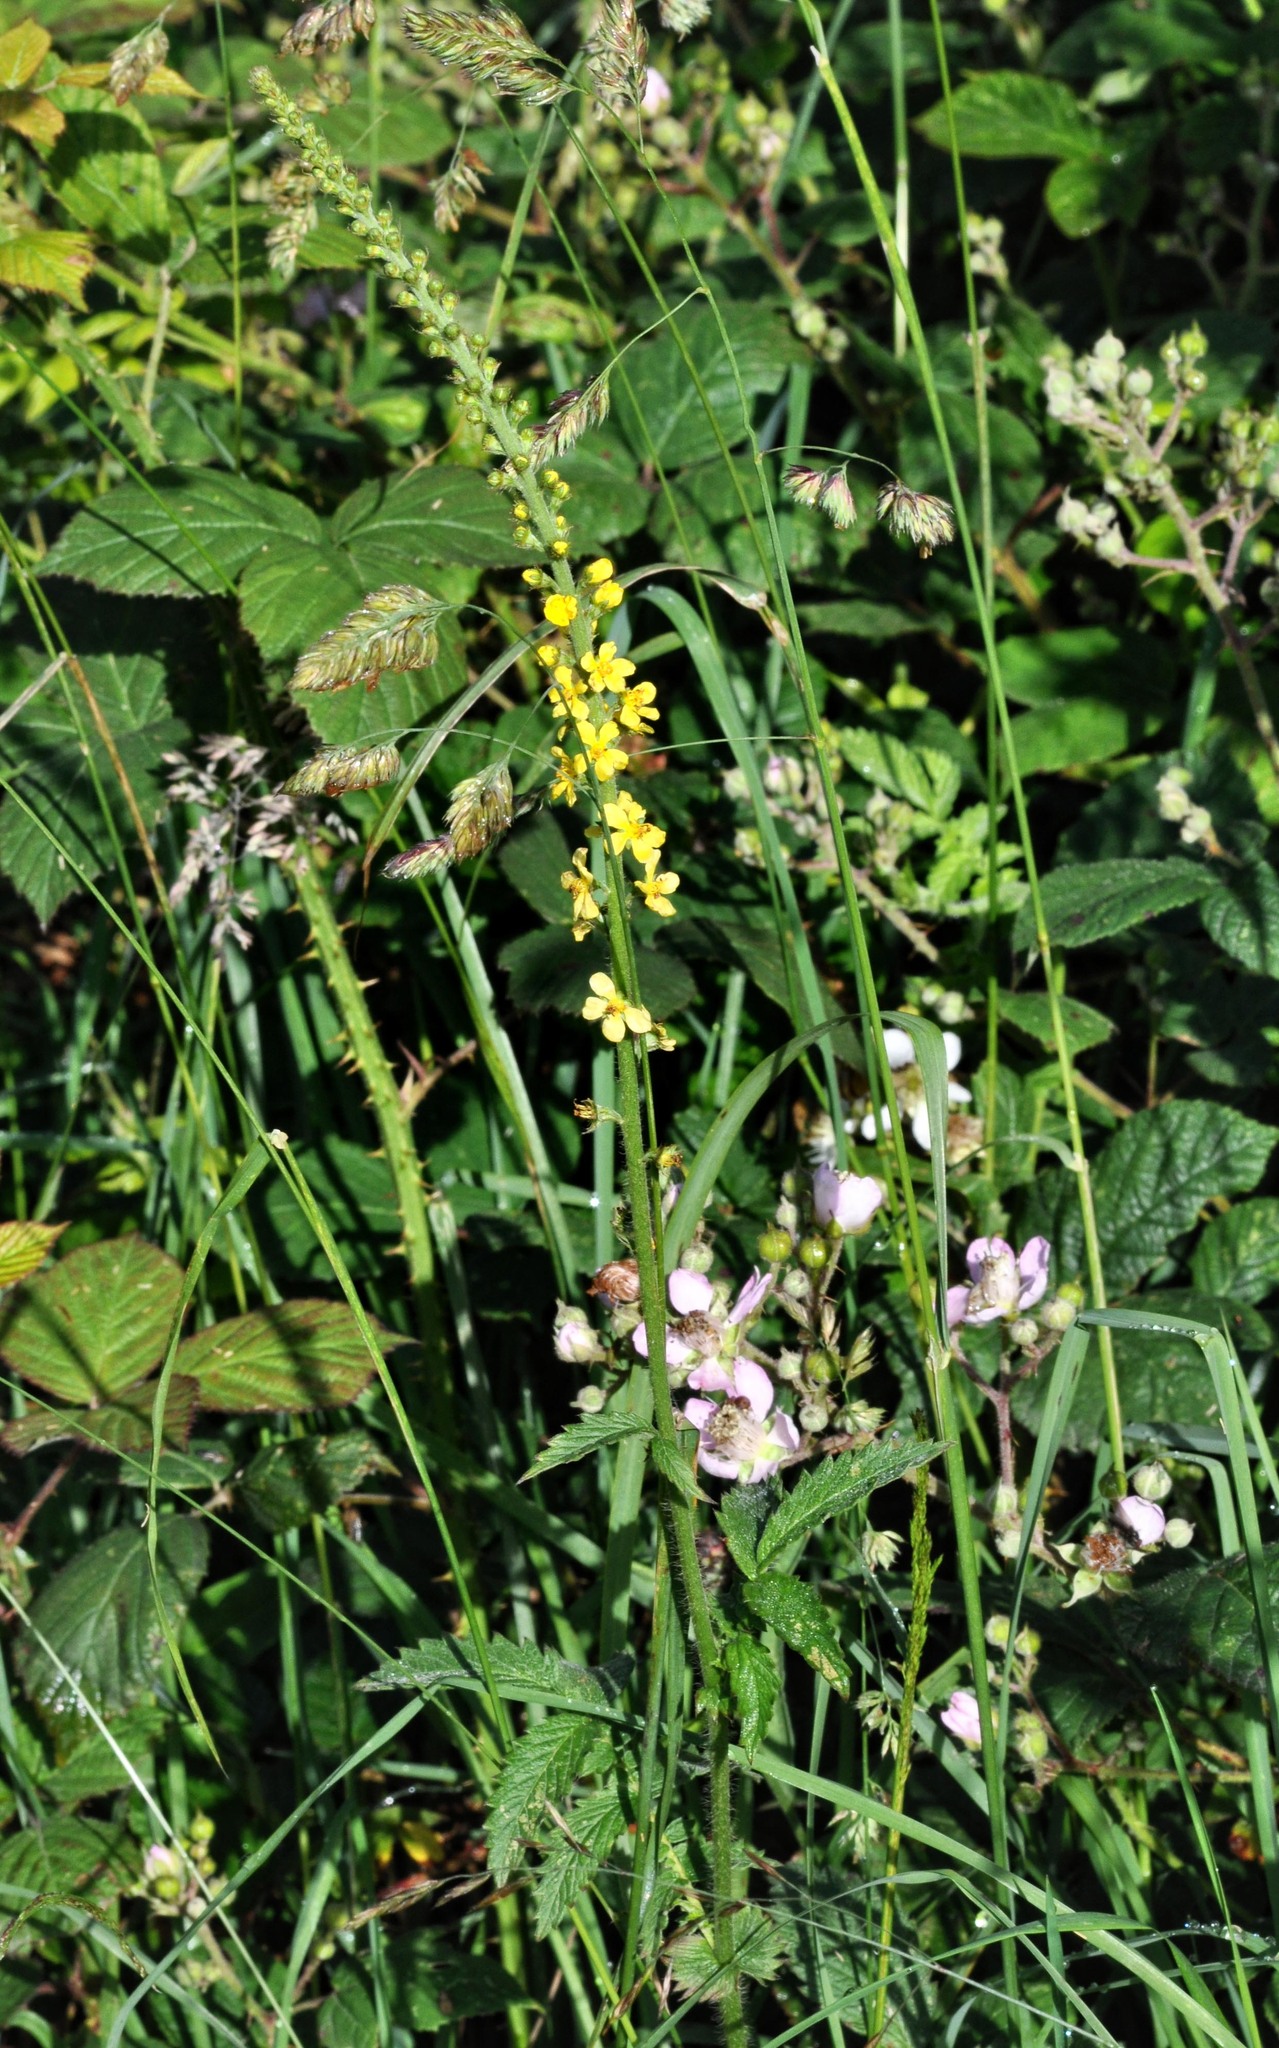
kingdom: Plantae
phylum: Tracheophyta
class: Magnoliopsida
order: Rosales
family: Rosaceae
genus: Agrimonia
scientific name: Agrimonia eupatoria
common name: Agrimony
